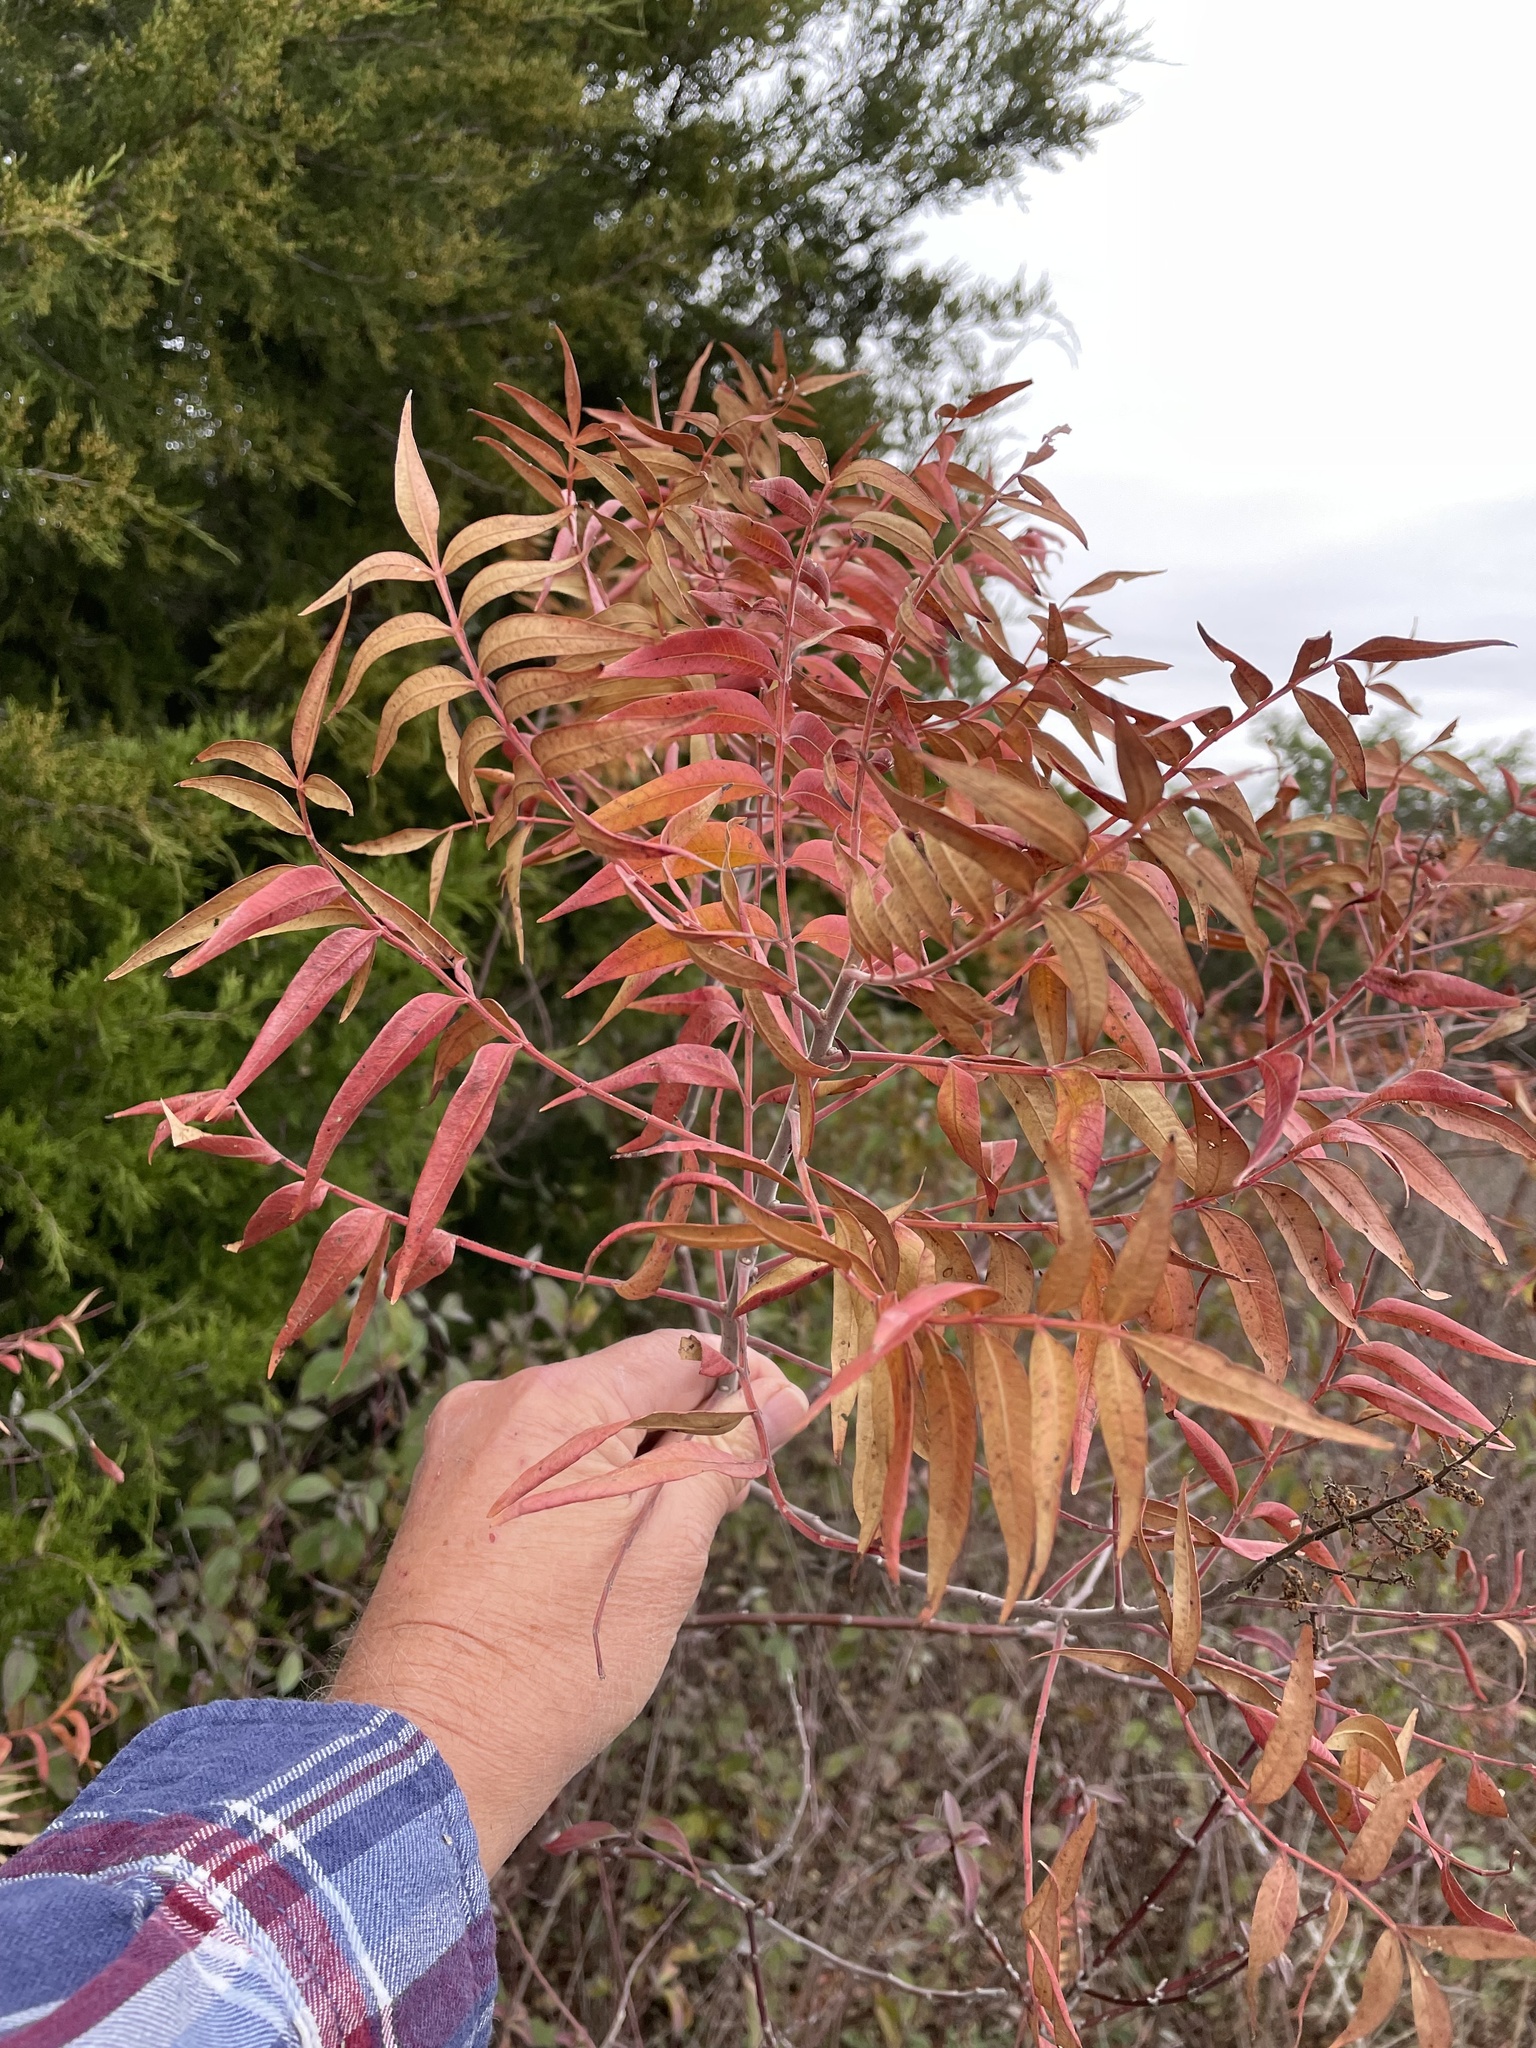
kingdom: Plantae
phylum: Tracheophyta
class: Magnoliopsida
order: Sapindales
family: Anacardiaceae
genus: Rhus
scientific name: Rhus lanceolata
